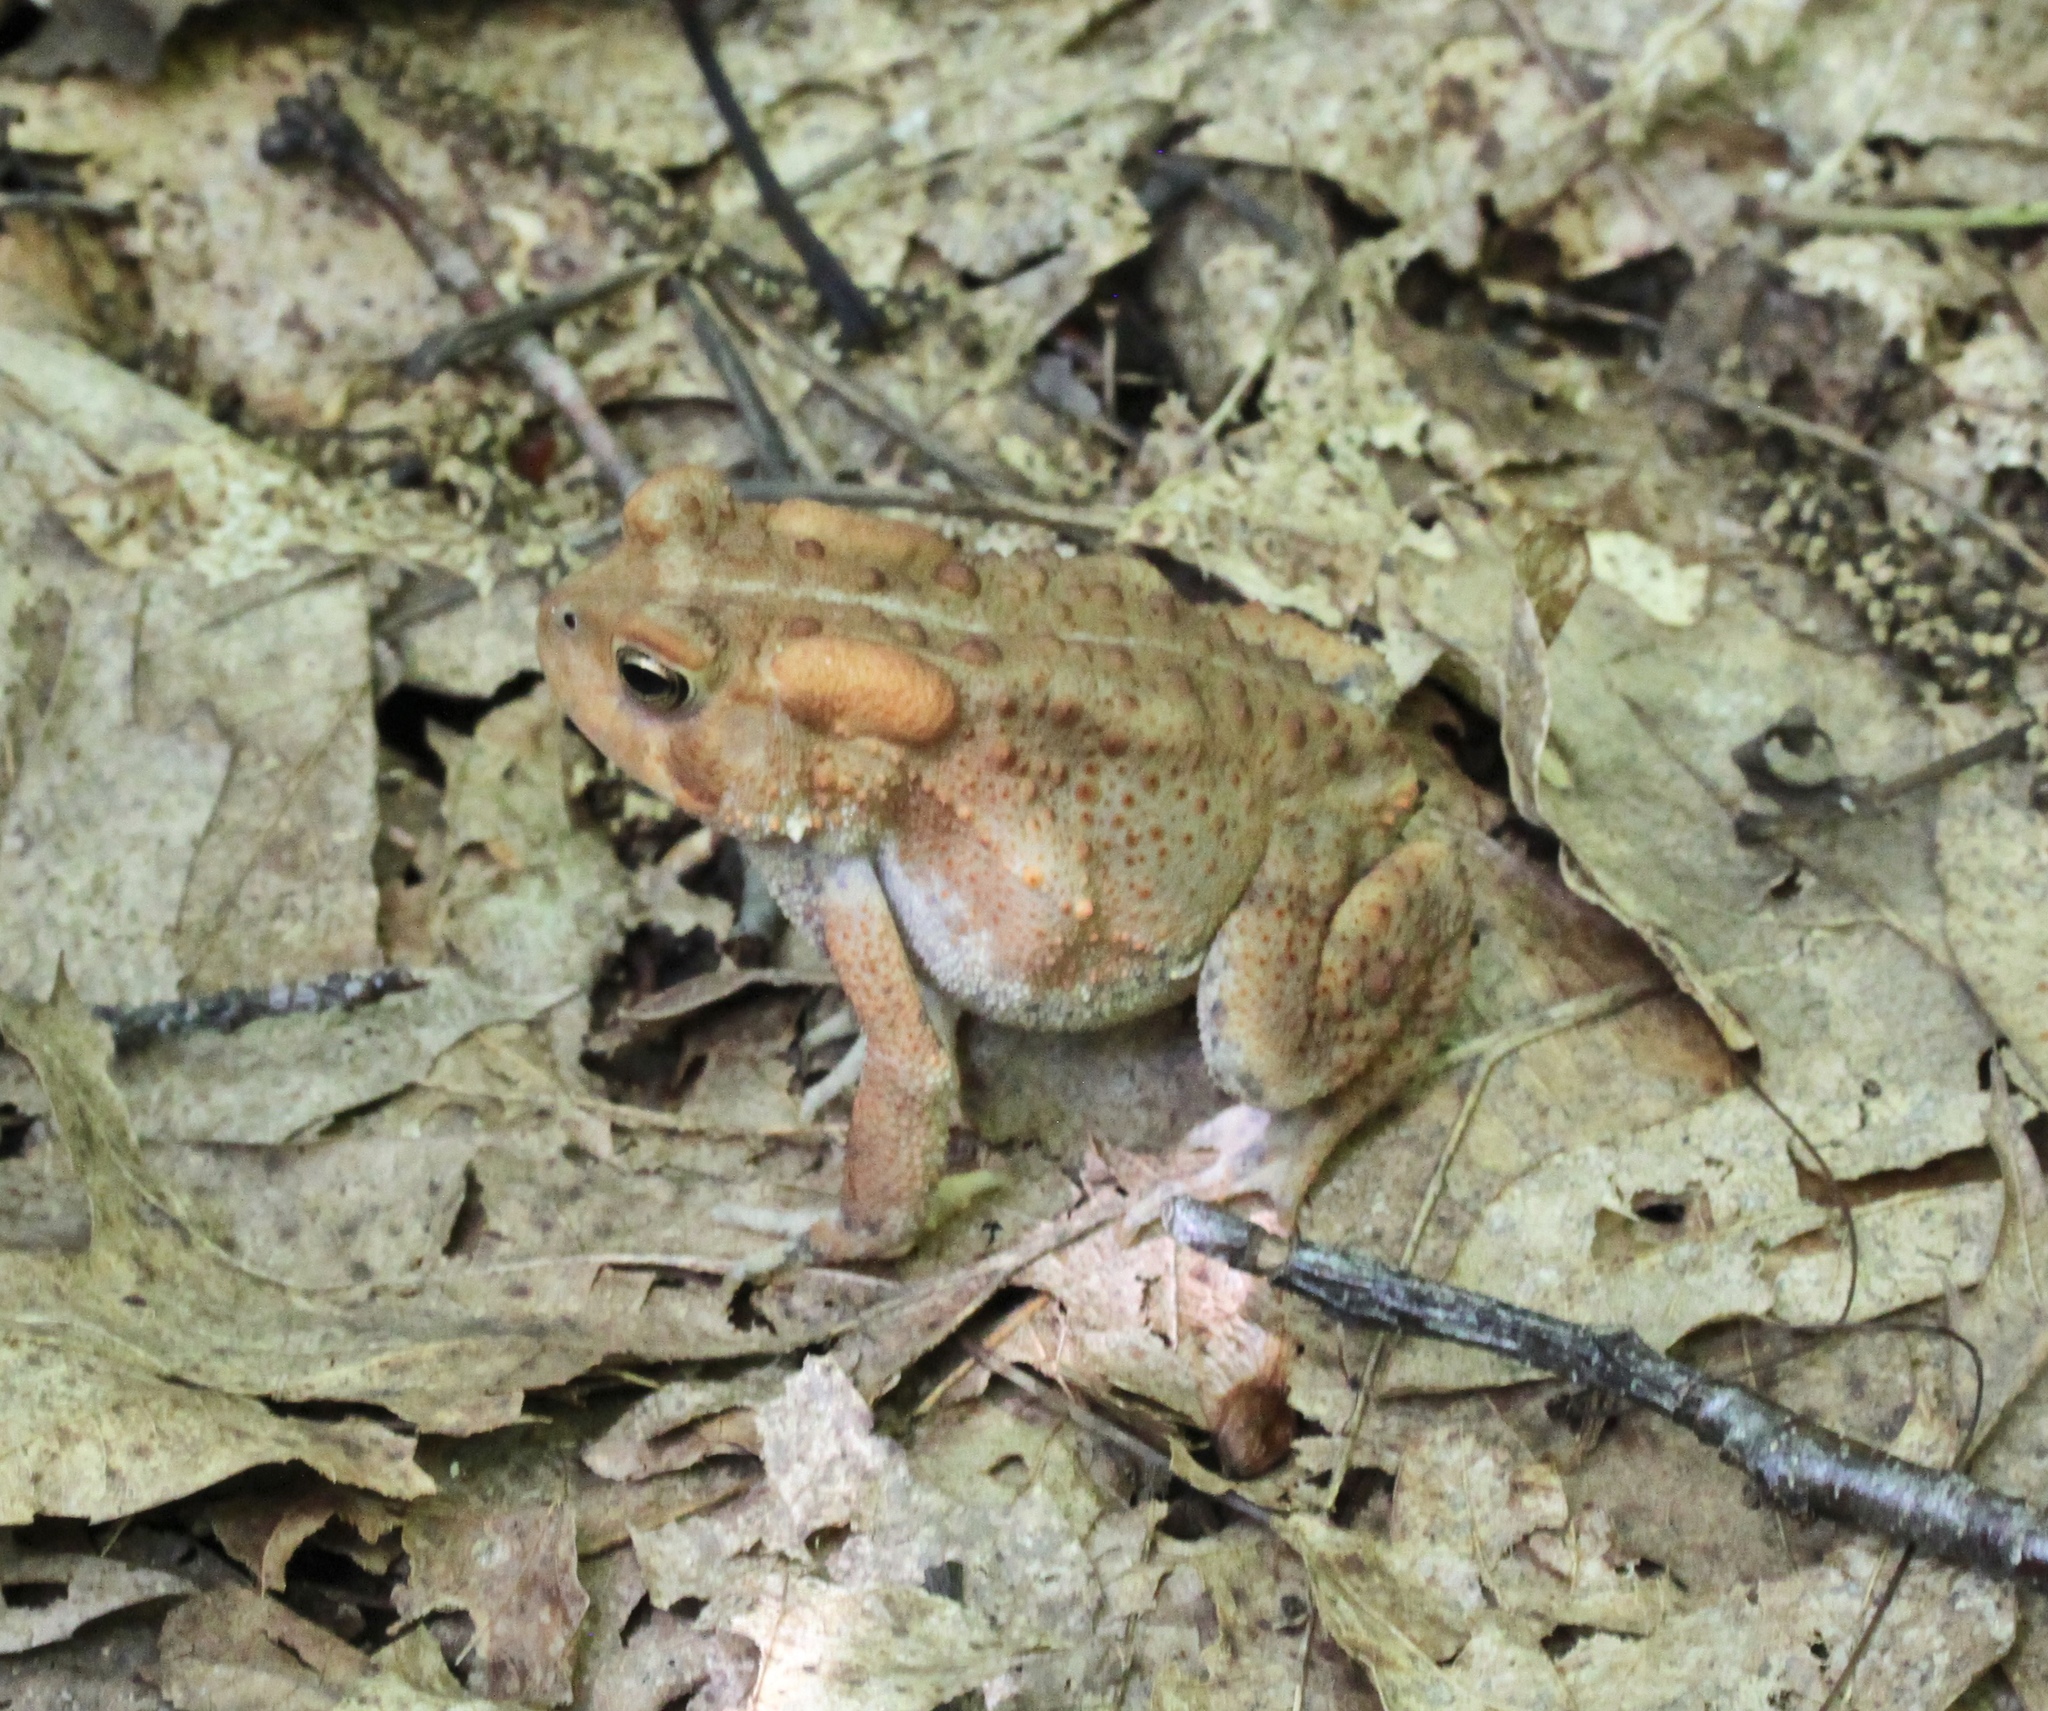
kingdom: Animalia
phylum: Chordata
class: Amphibia
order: Anura
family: Bufonidae
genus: Anaxyrus
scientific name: Anaxyrus americanus
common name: American toad
